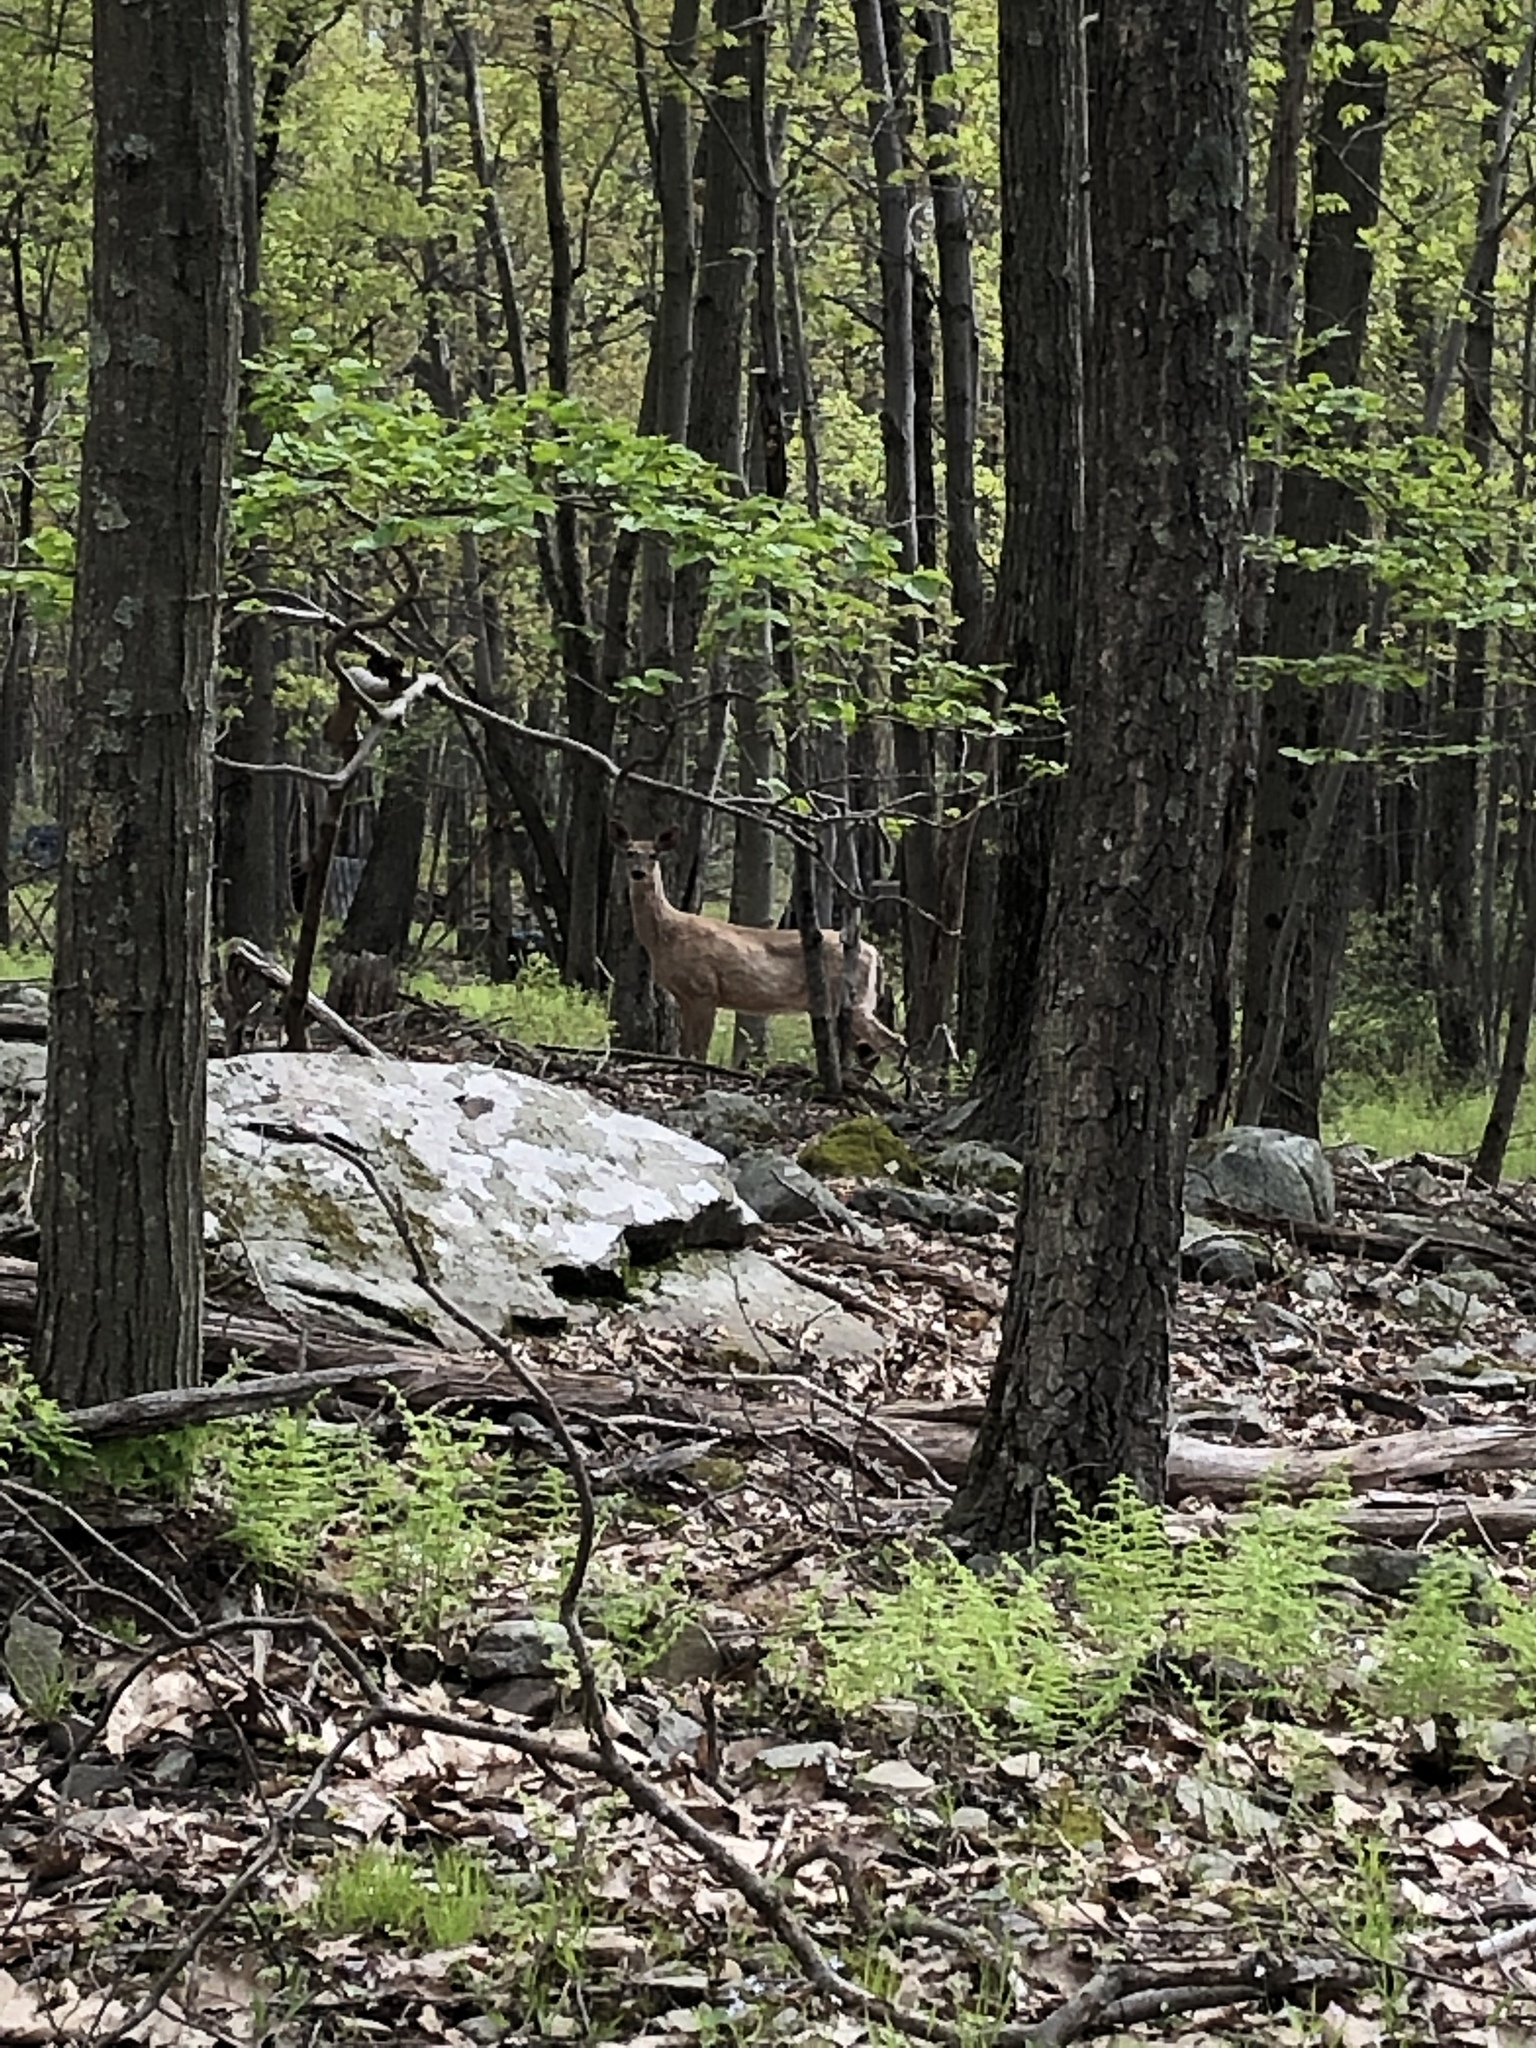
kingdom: Animalia
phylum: Chordata
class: Mammalia
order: Artiodactyla
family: Cervidae
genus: Odocoileus
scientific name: Odocoileus virginianus
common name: White-tailed deer
